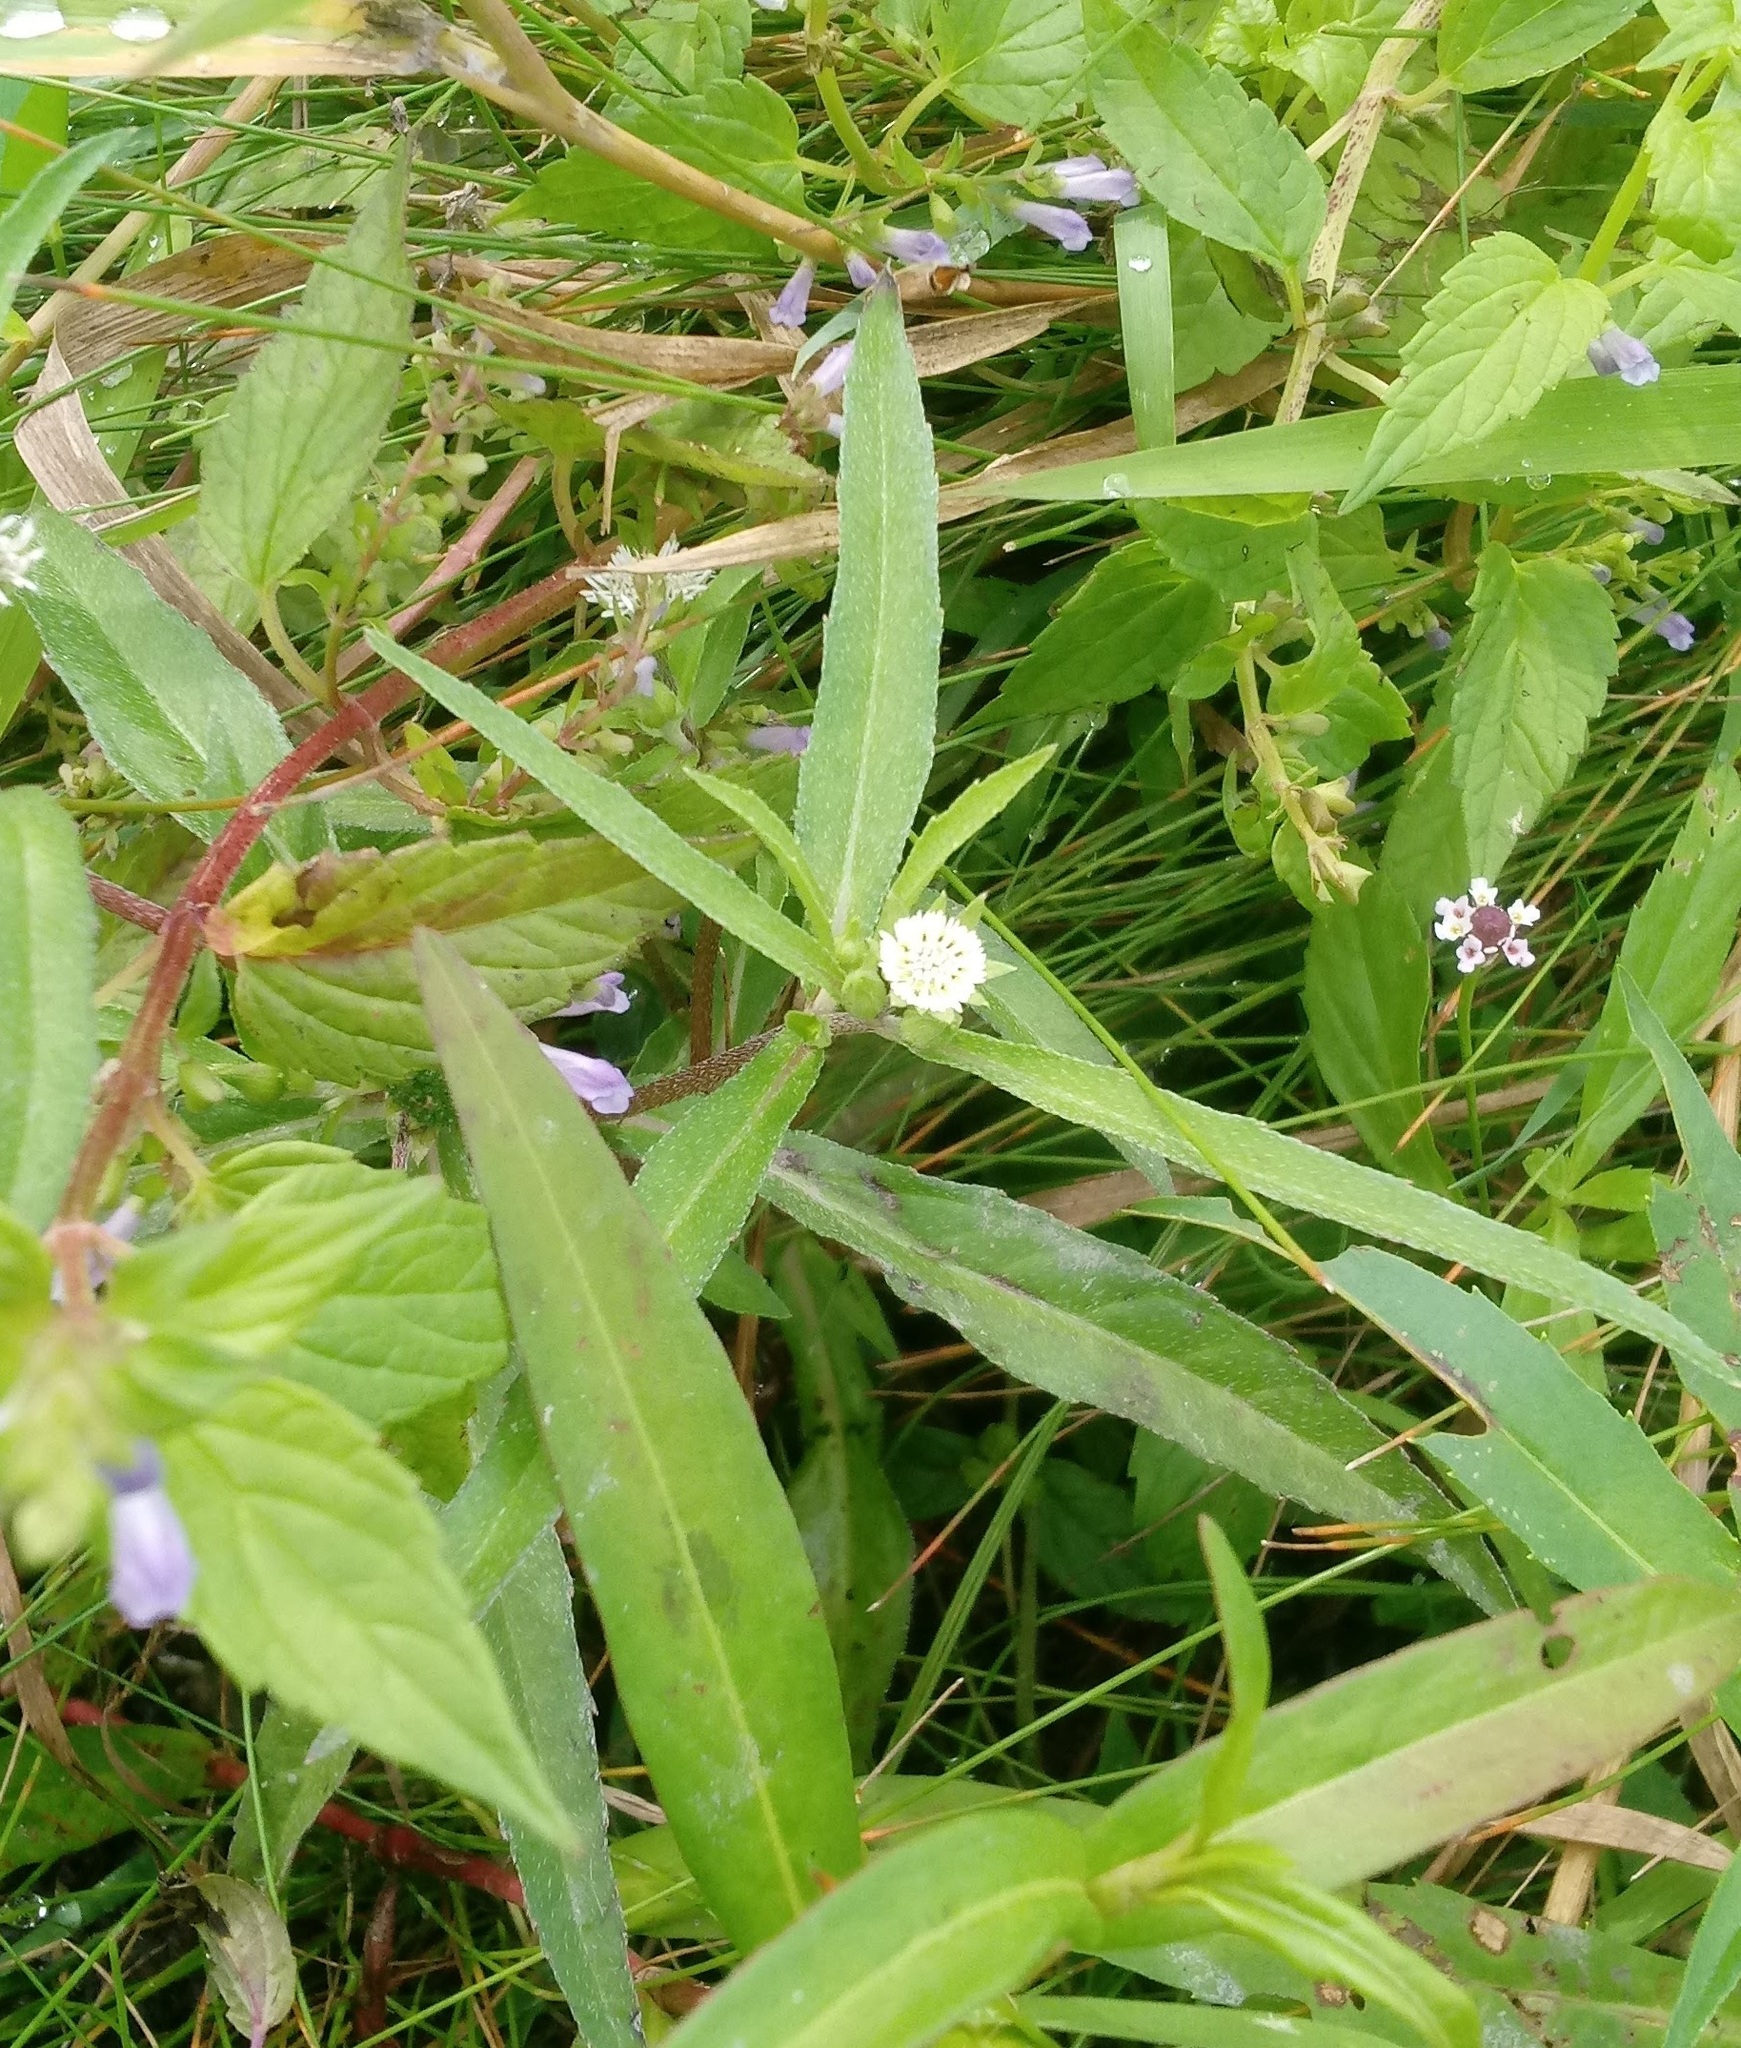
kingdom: Plantae
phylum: Tracheophyta
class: Magnoliopsida
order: Asterales
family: Asteraceae
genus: Eclipta
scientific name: Eclipta prostrata
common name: False daisy
